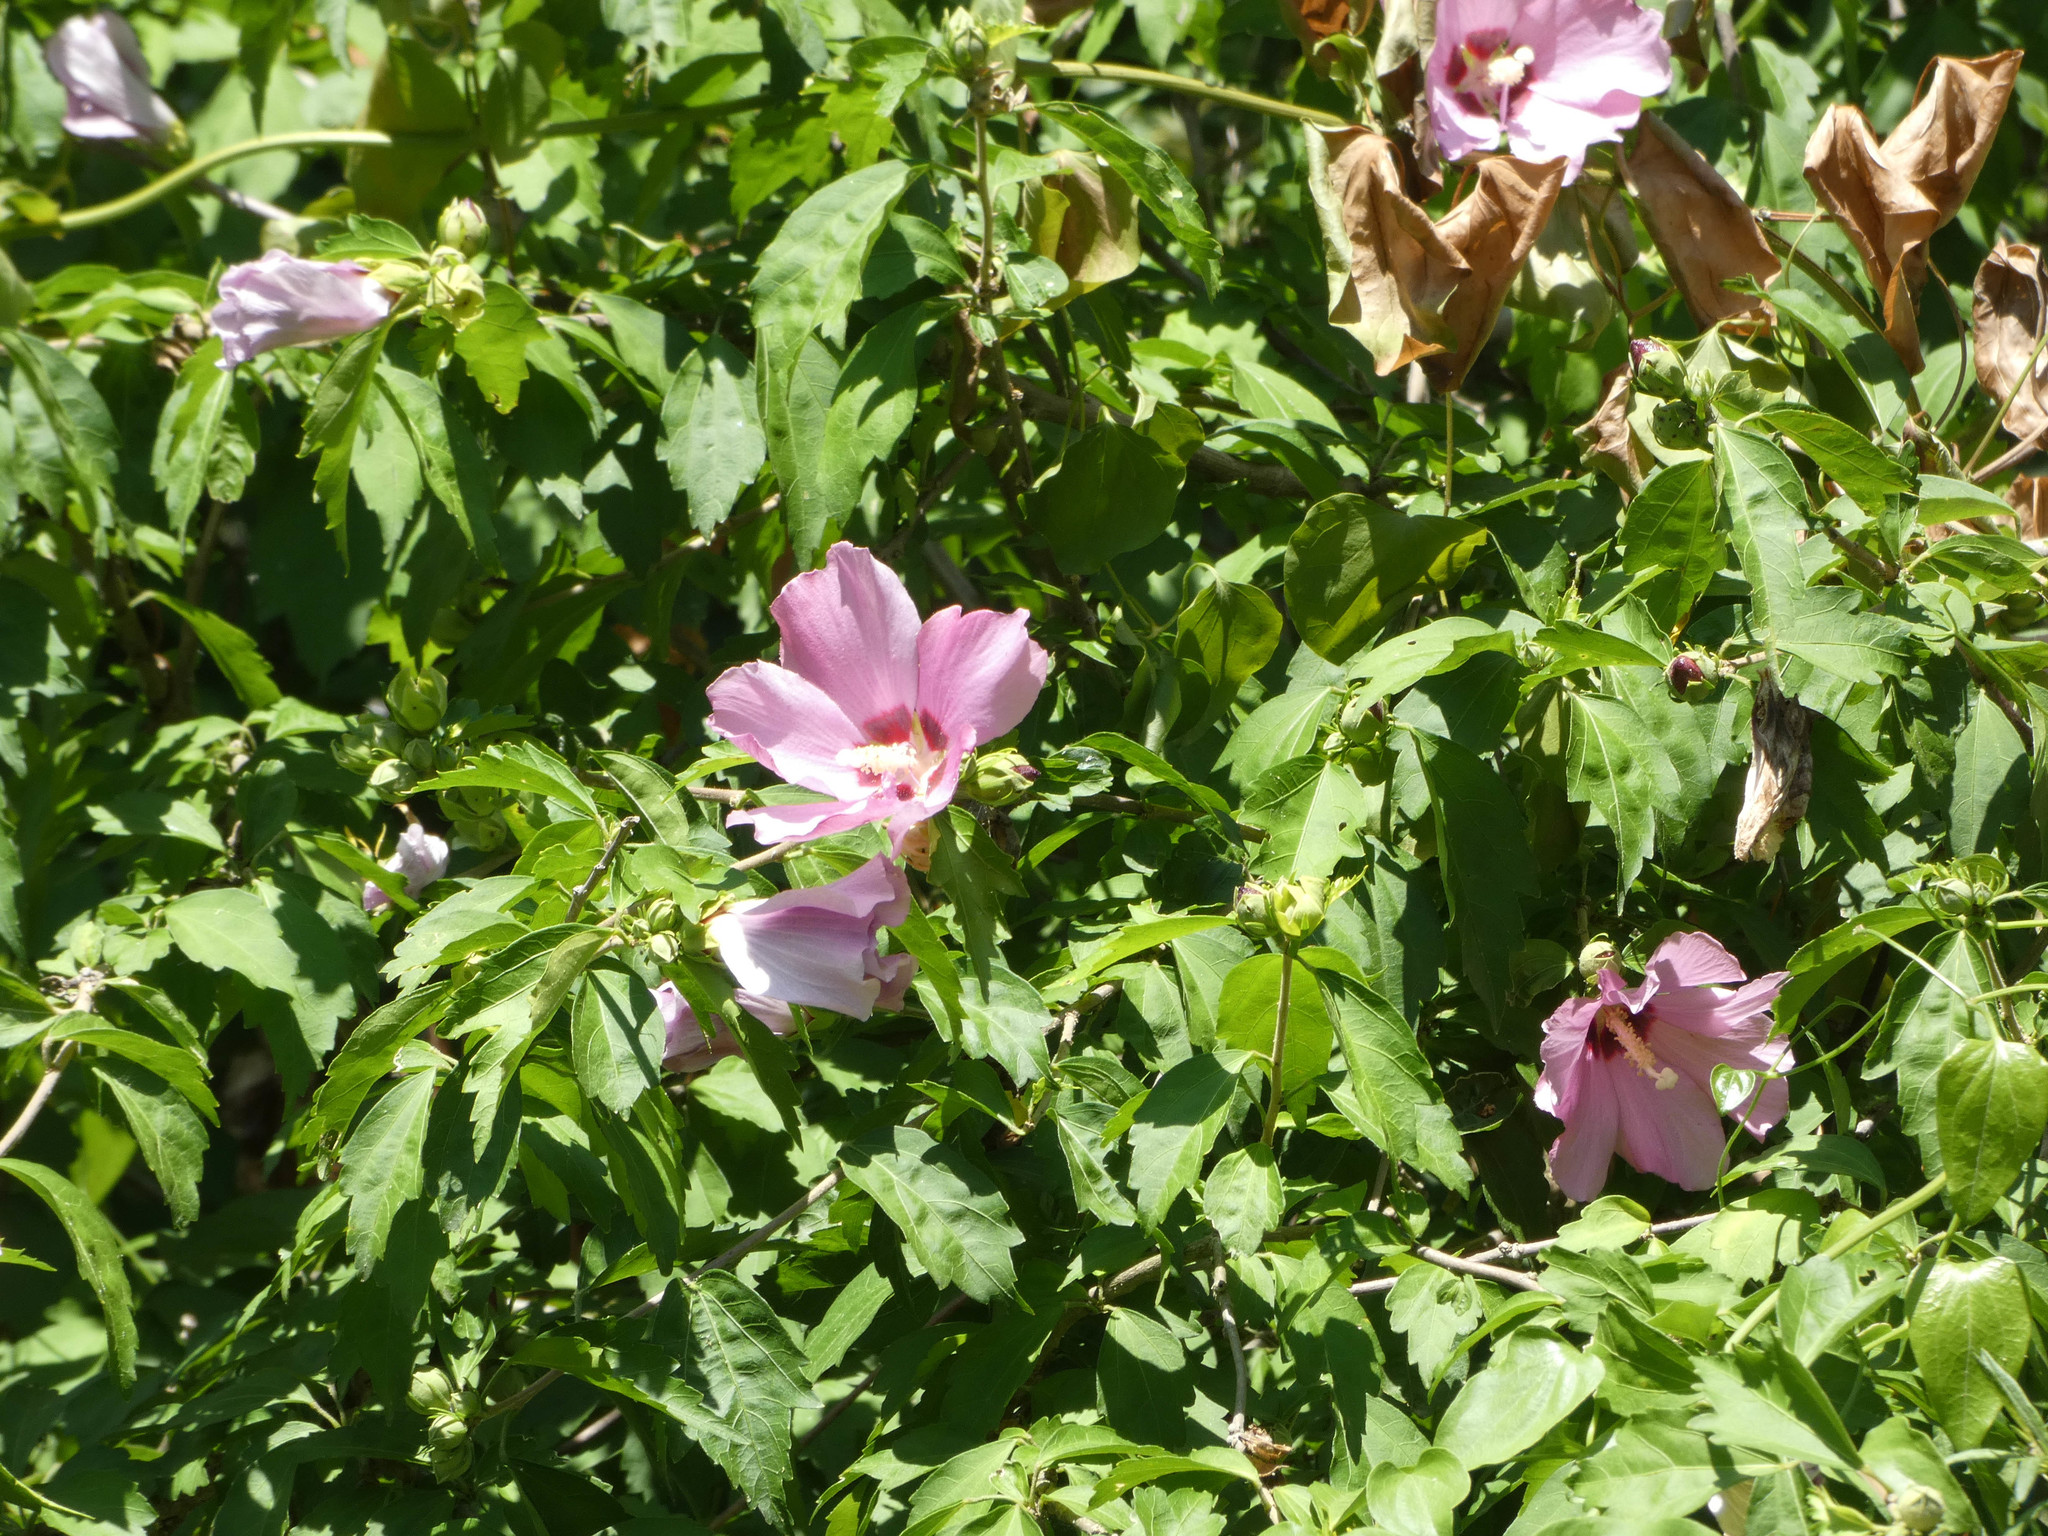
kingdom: Plantae
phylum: Tracheophyta
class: Magnoliopsida
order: Malvales
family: Malvaceae
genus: Hibiscus
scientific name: Hibiscus syriacus
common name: Syrian ketmia
